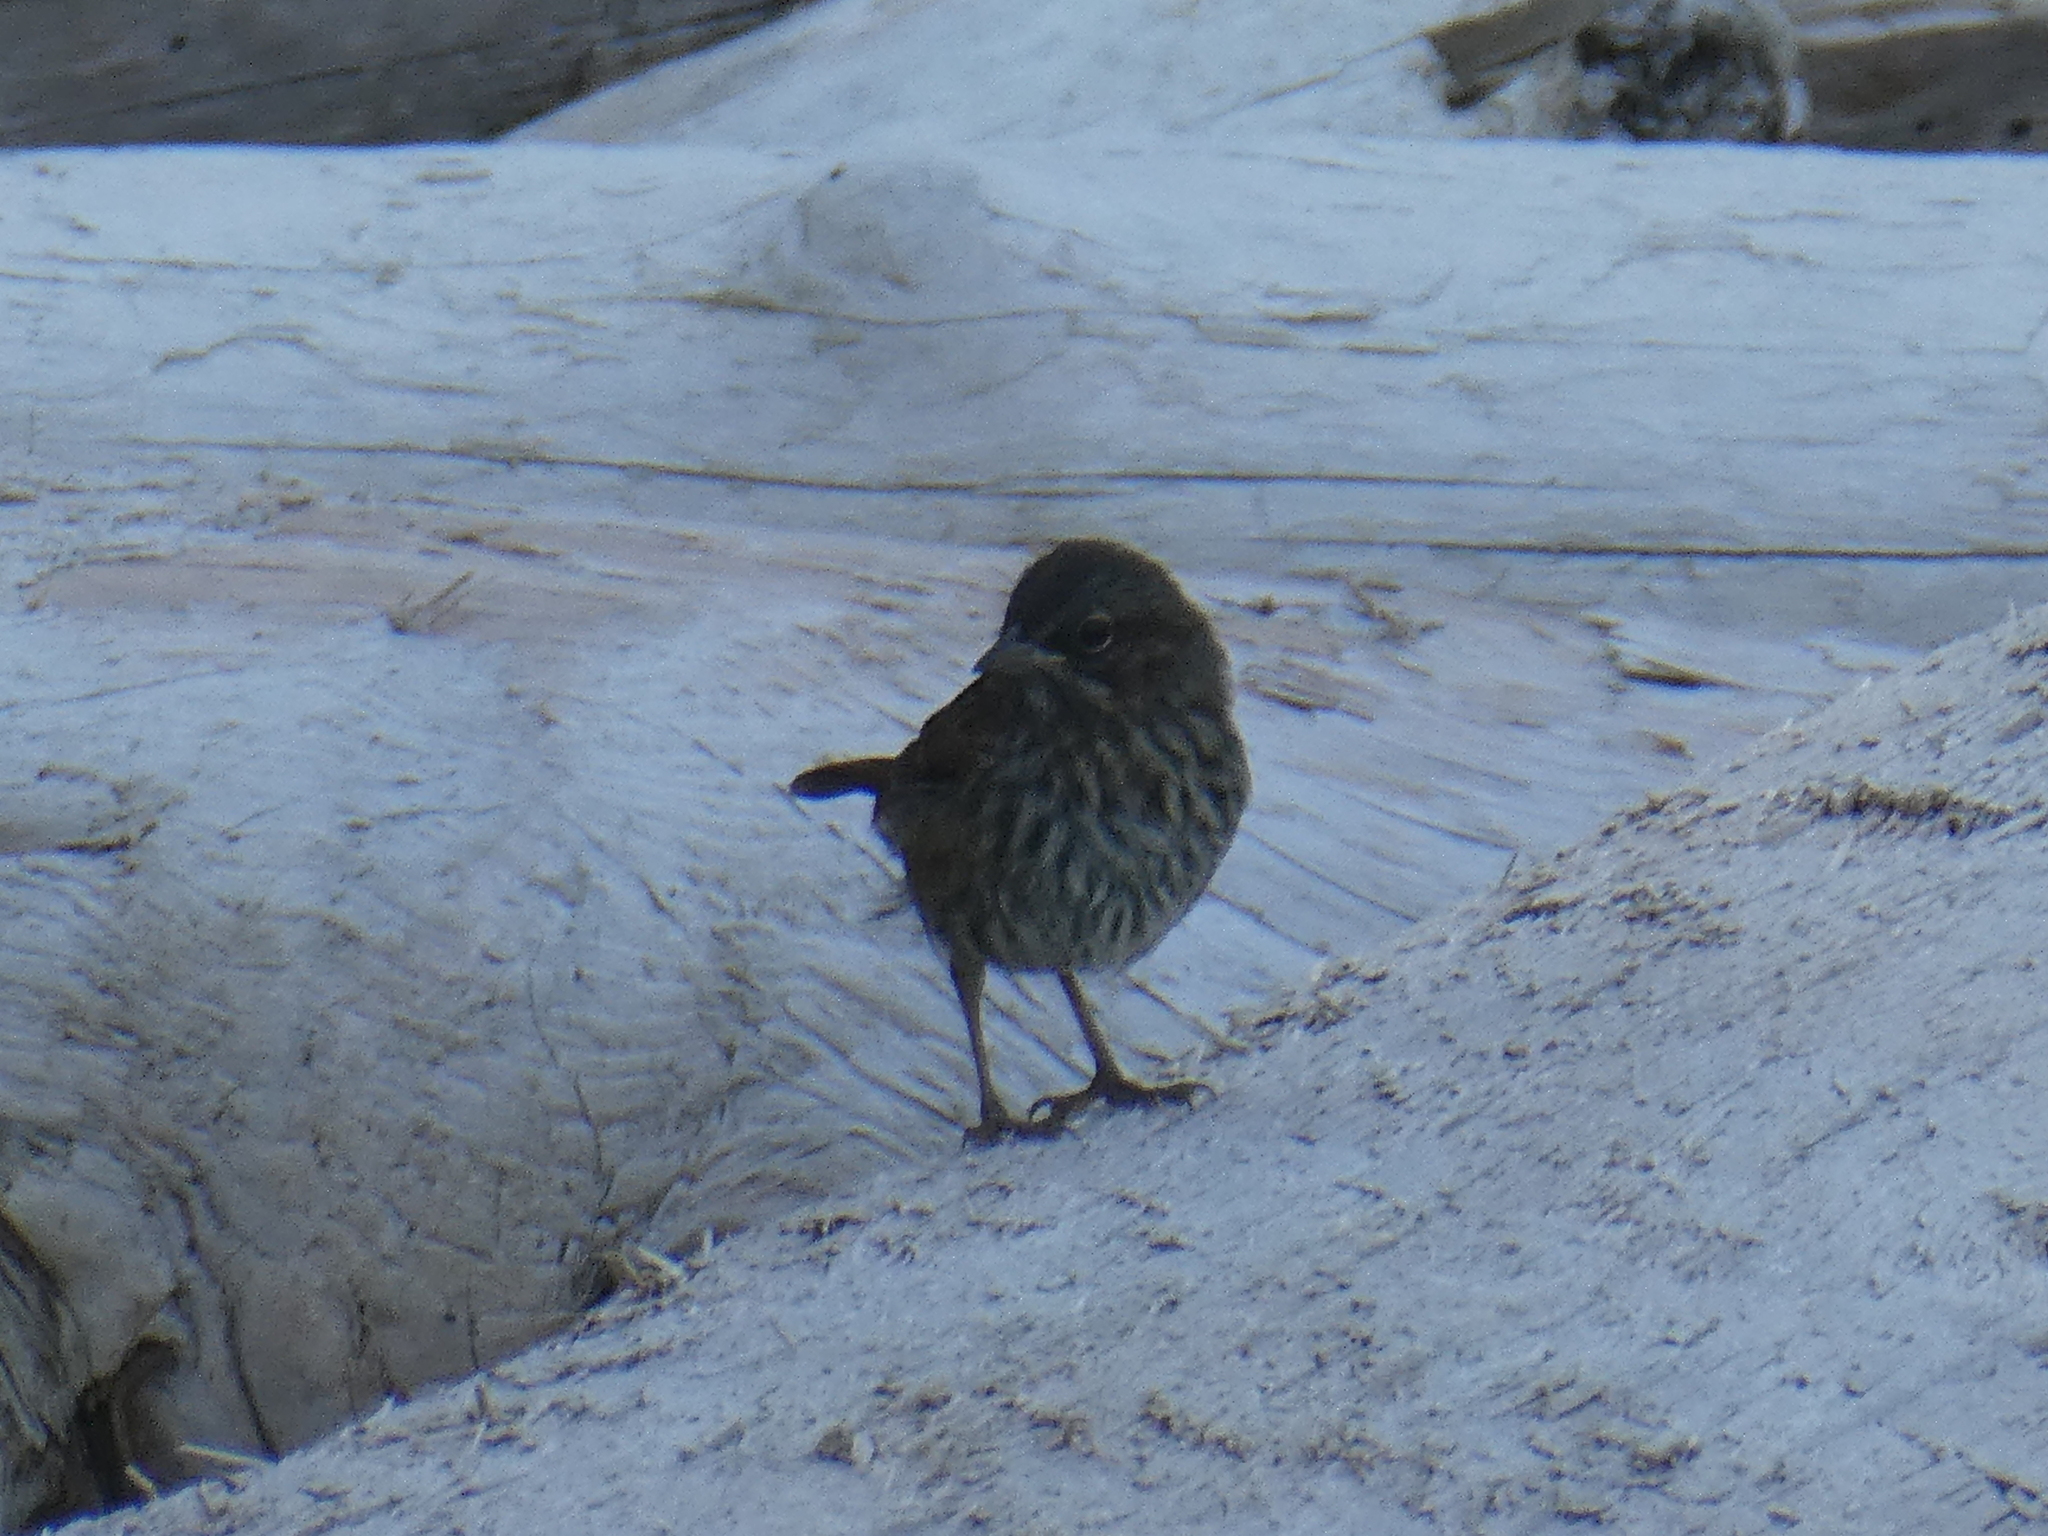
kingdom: Animalia
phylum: Chordata
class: Aves
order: Passeriformes
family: Passerellidae
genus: Melospiza
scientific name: Melospiza melodia
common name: Song sparrow
